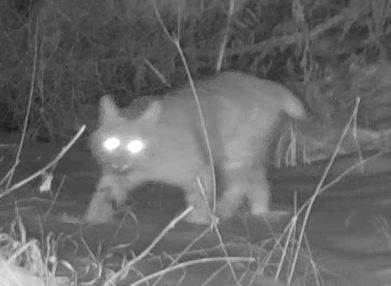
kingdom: Animalia
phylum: Chordata
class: Mammalia
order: Carnivora
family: Felidae
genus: Lynx
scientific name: Lynx rufus
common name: Bobcat
